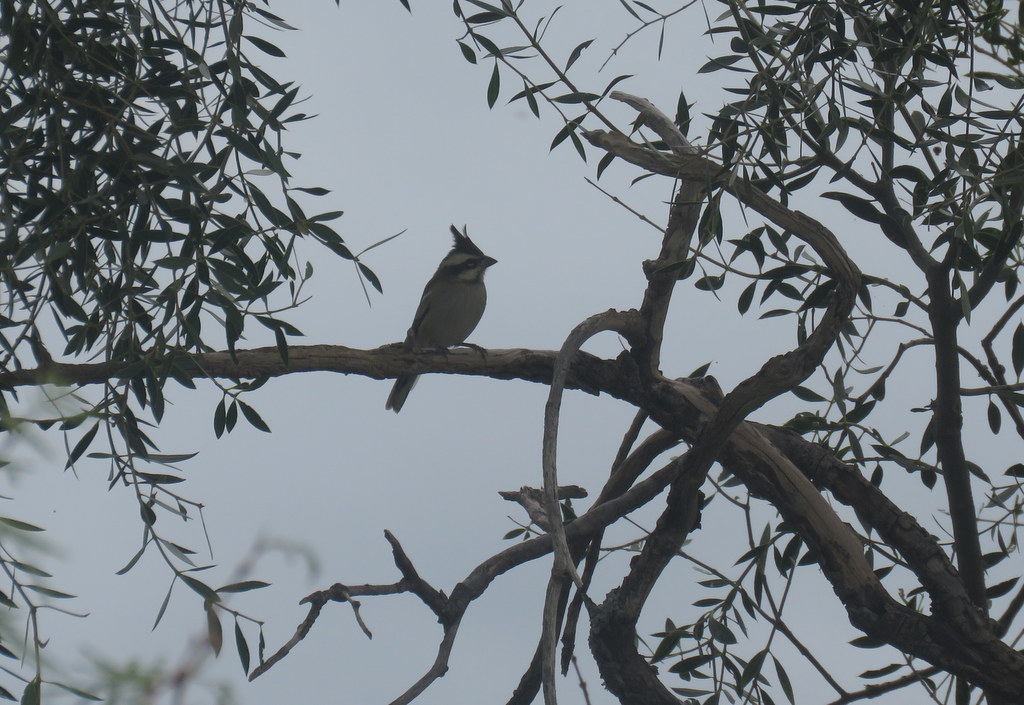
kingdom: Animalia
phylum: Chordata
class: Aves
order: Passeriformes
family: Thraupidae
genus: Lophospingus
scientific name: Lophospingus pusillus
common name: Black-crested finch
